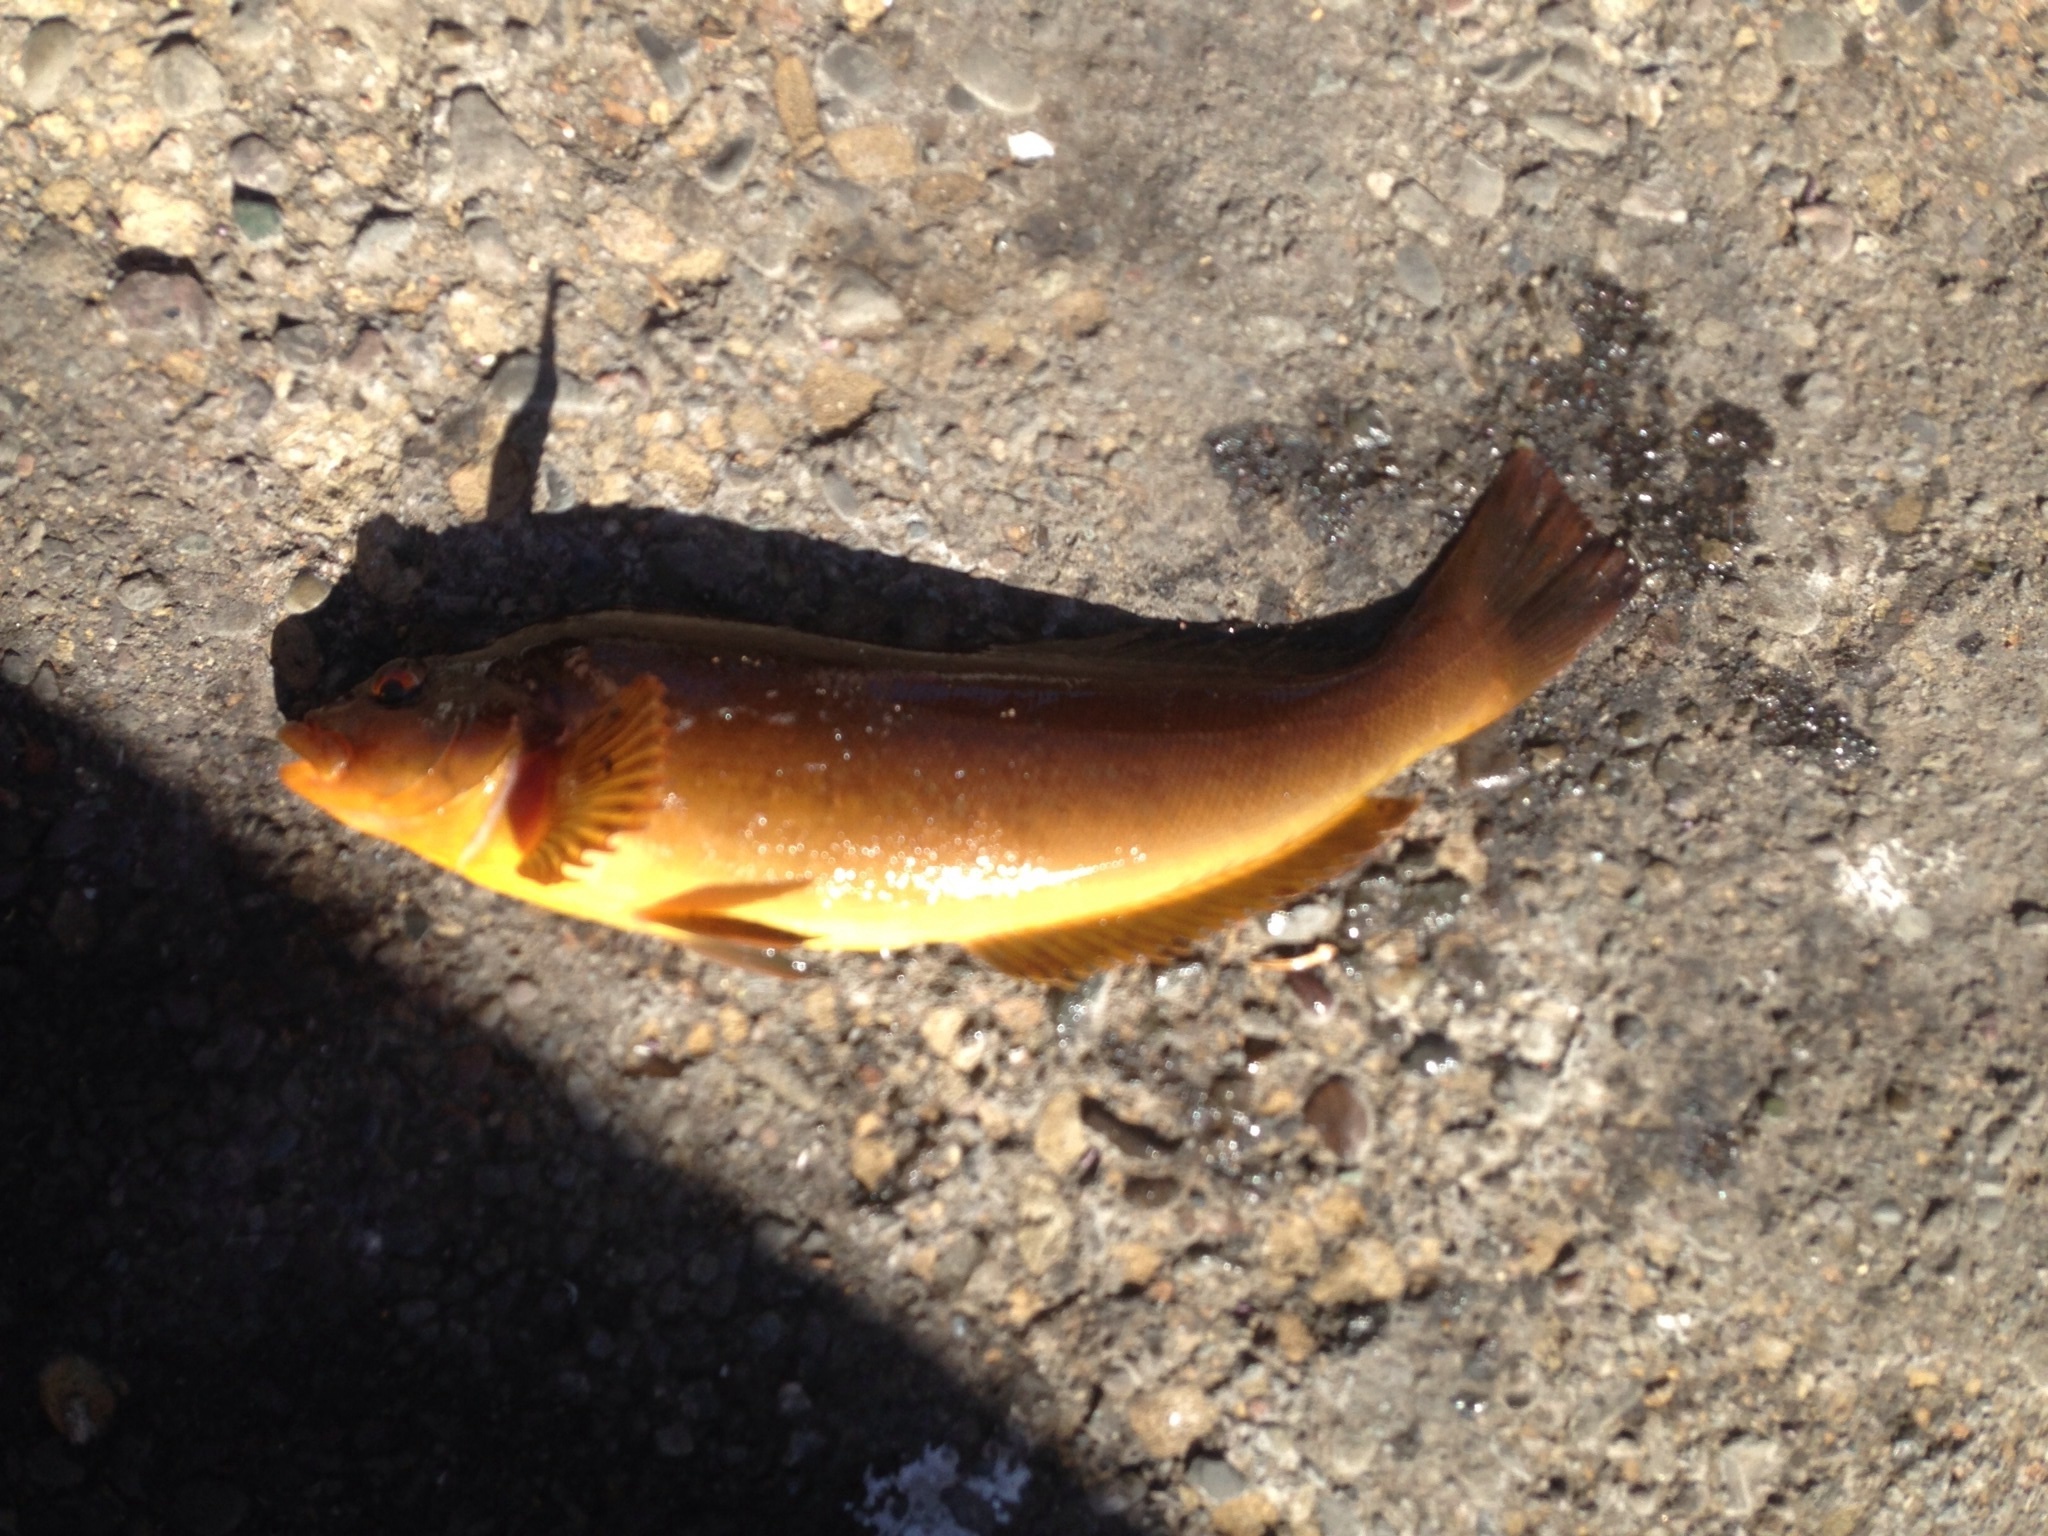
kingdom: Animalia
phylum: Chordata
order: Scorpaeniformes
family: Hexagrammidae
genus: Hexagrammos
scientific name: Hexagrammos decagrammus
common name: Kelp greenling
